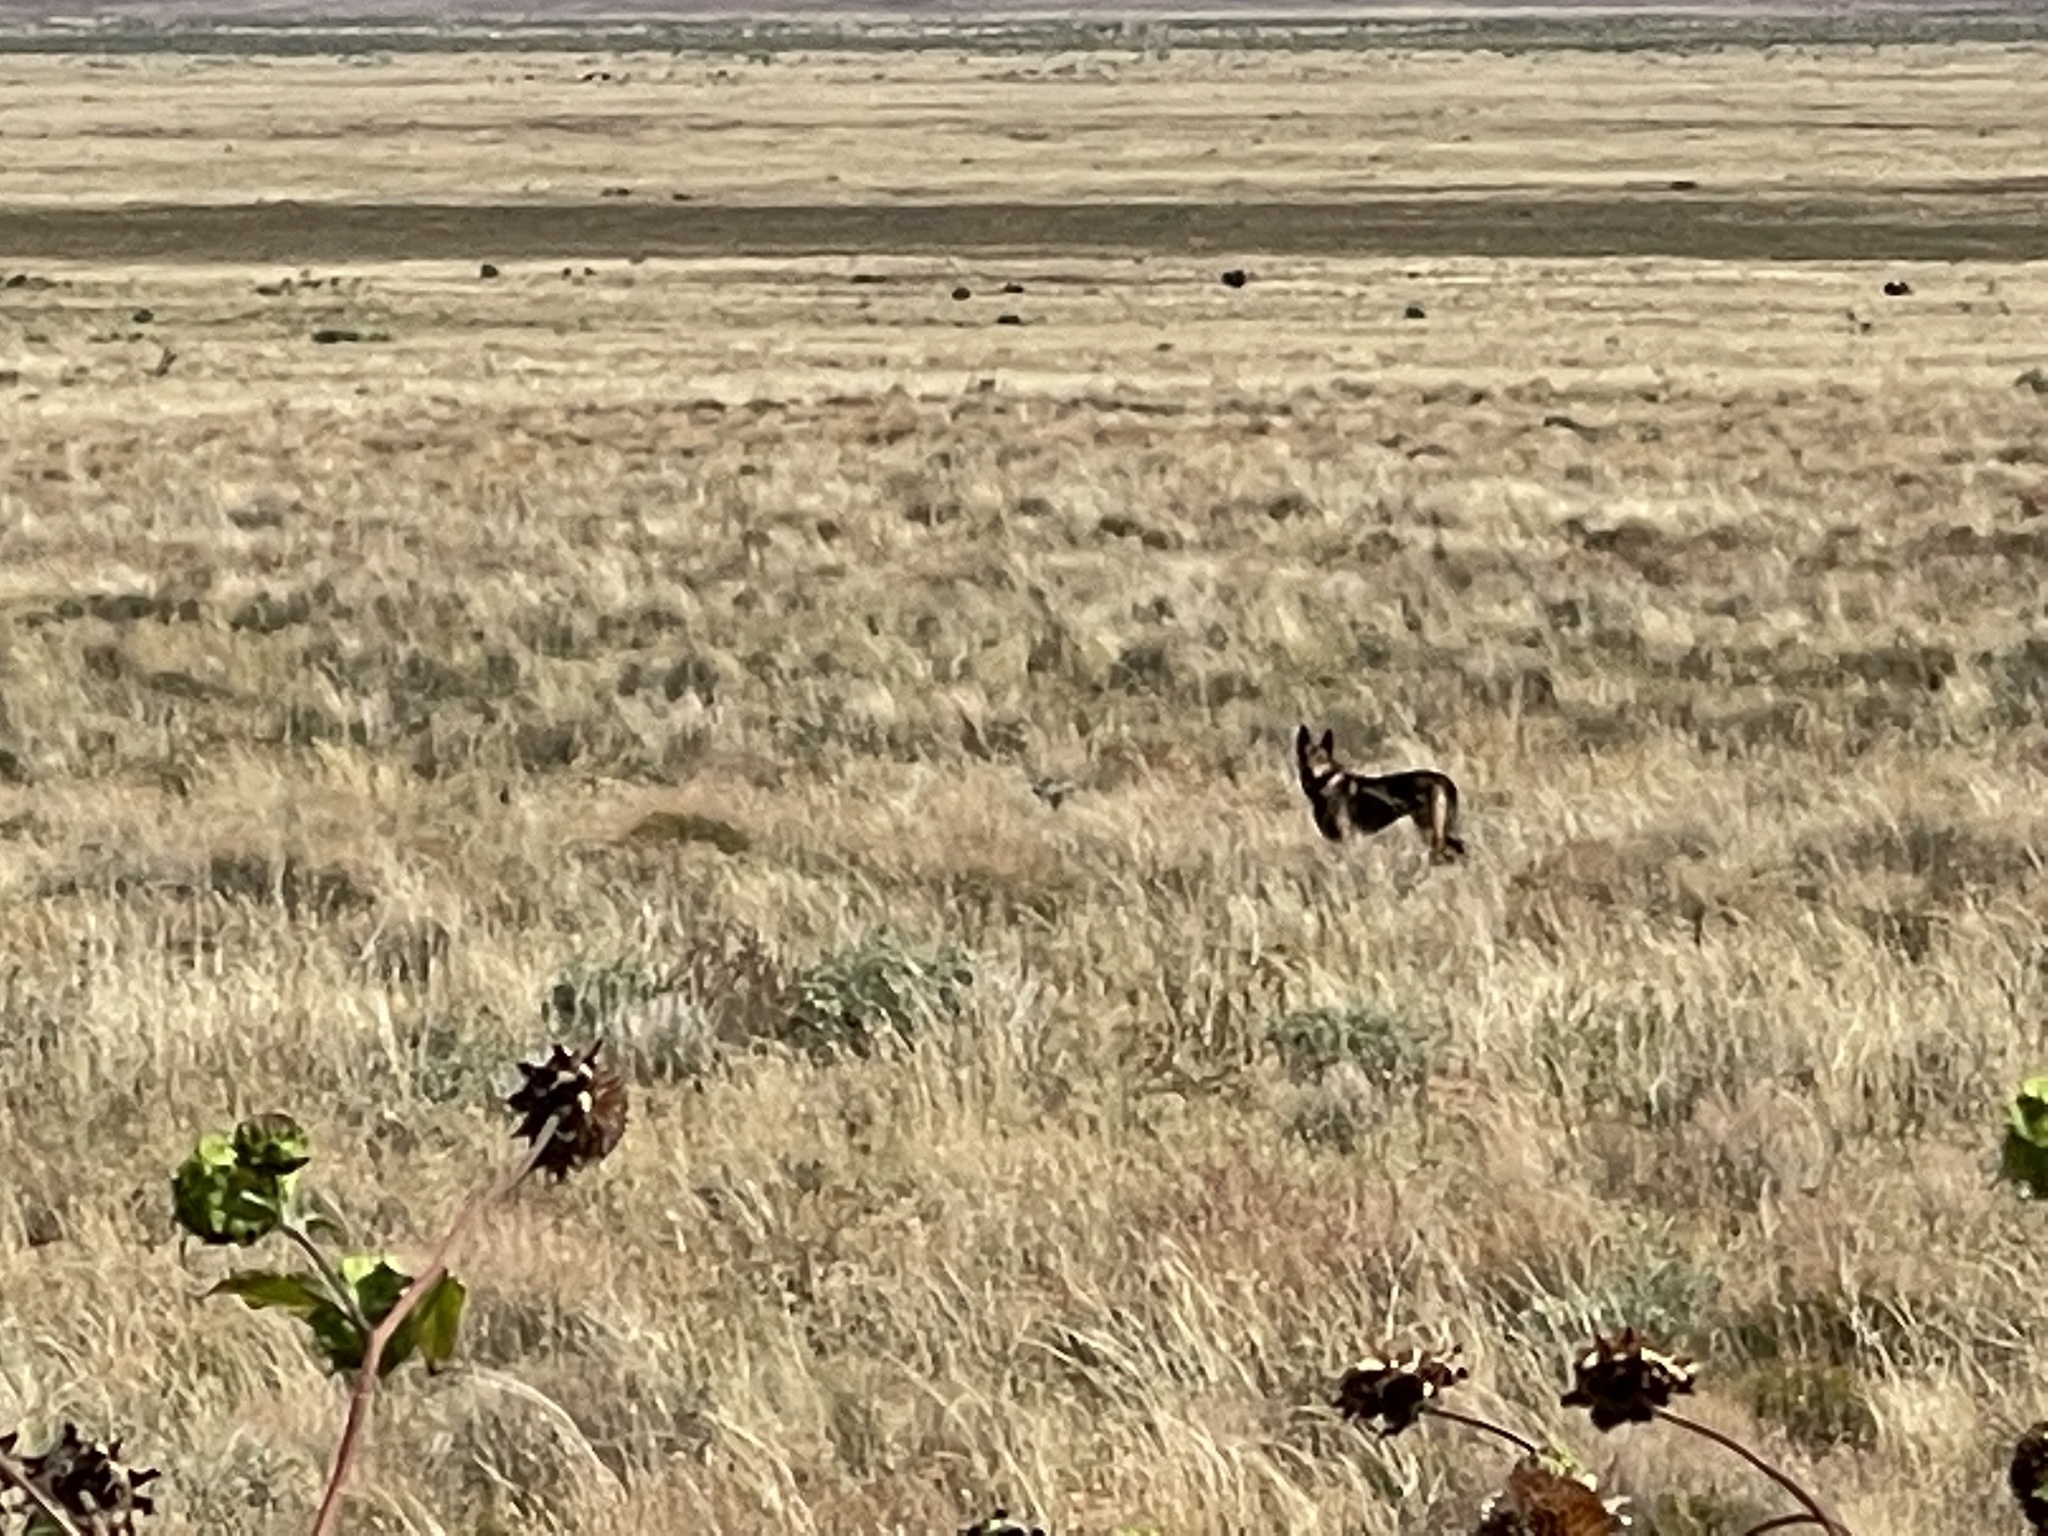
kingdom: Animalia
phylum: Chordata
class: Mammalia
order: Carnivora
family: Canidae
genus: Canis
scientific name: Canis latrans
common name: Coyote
